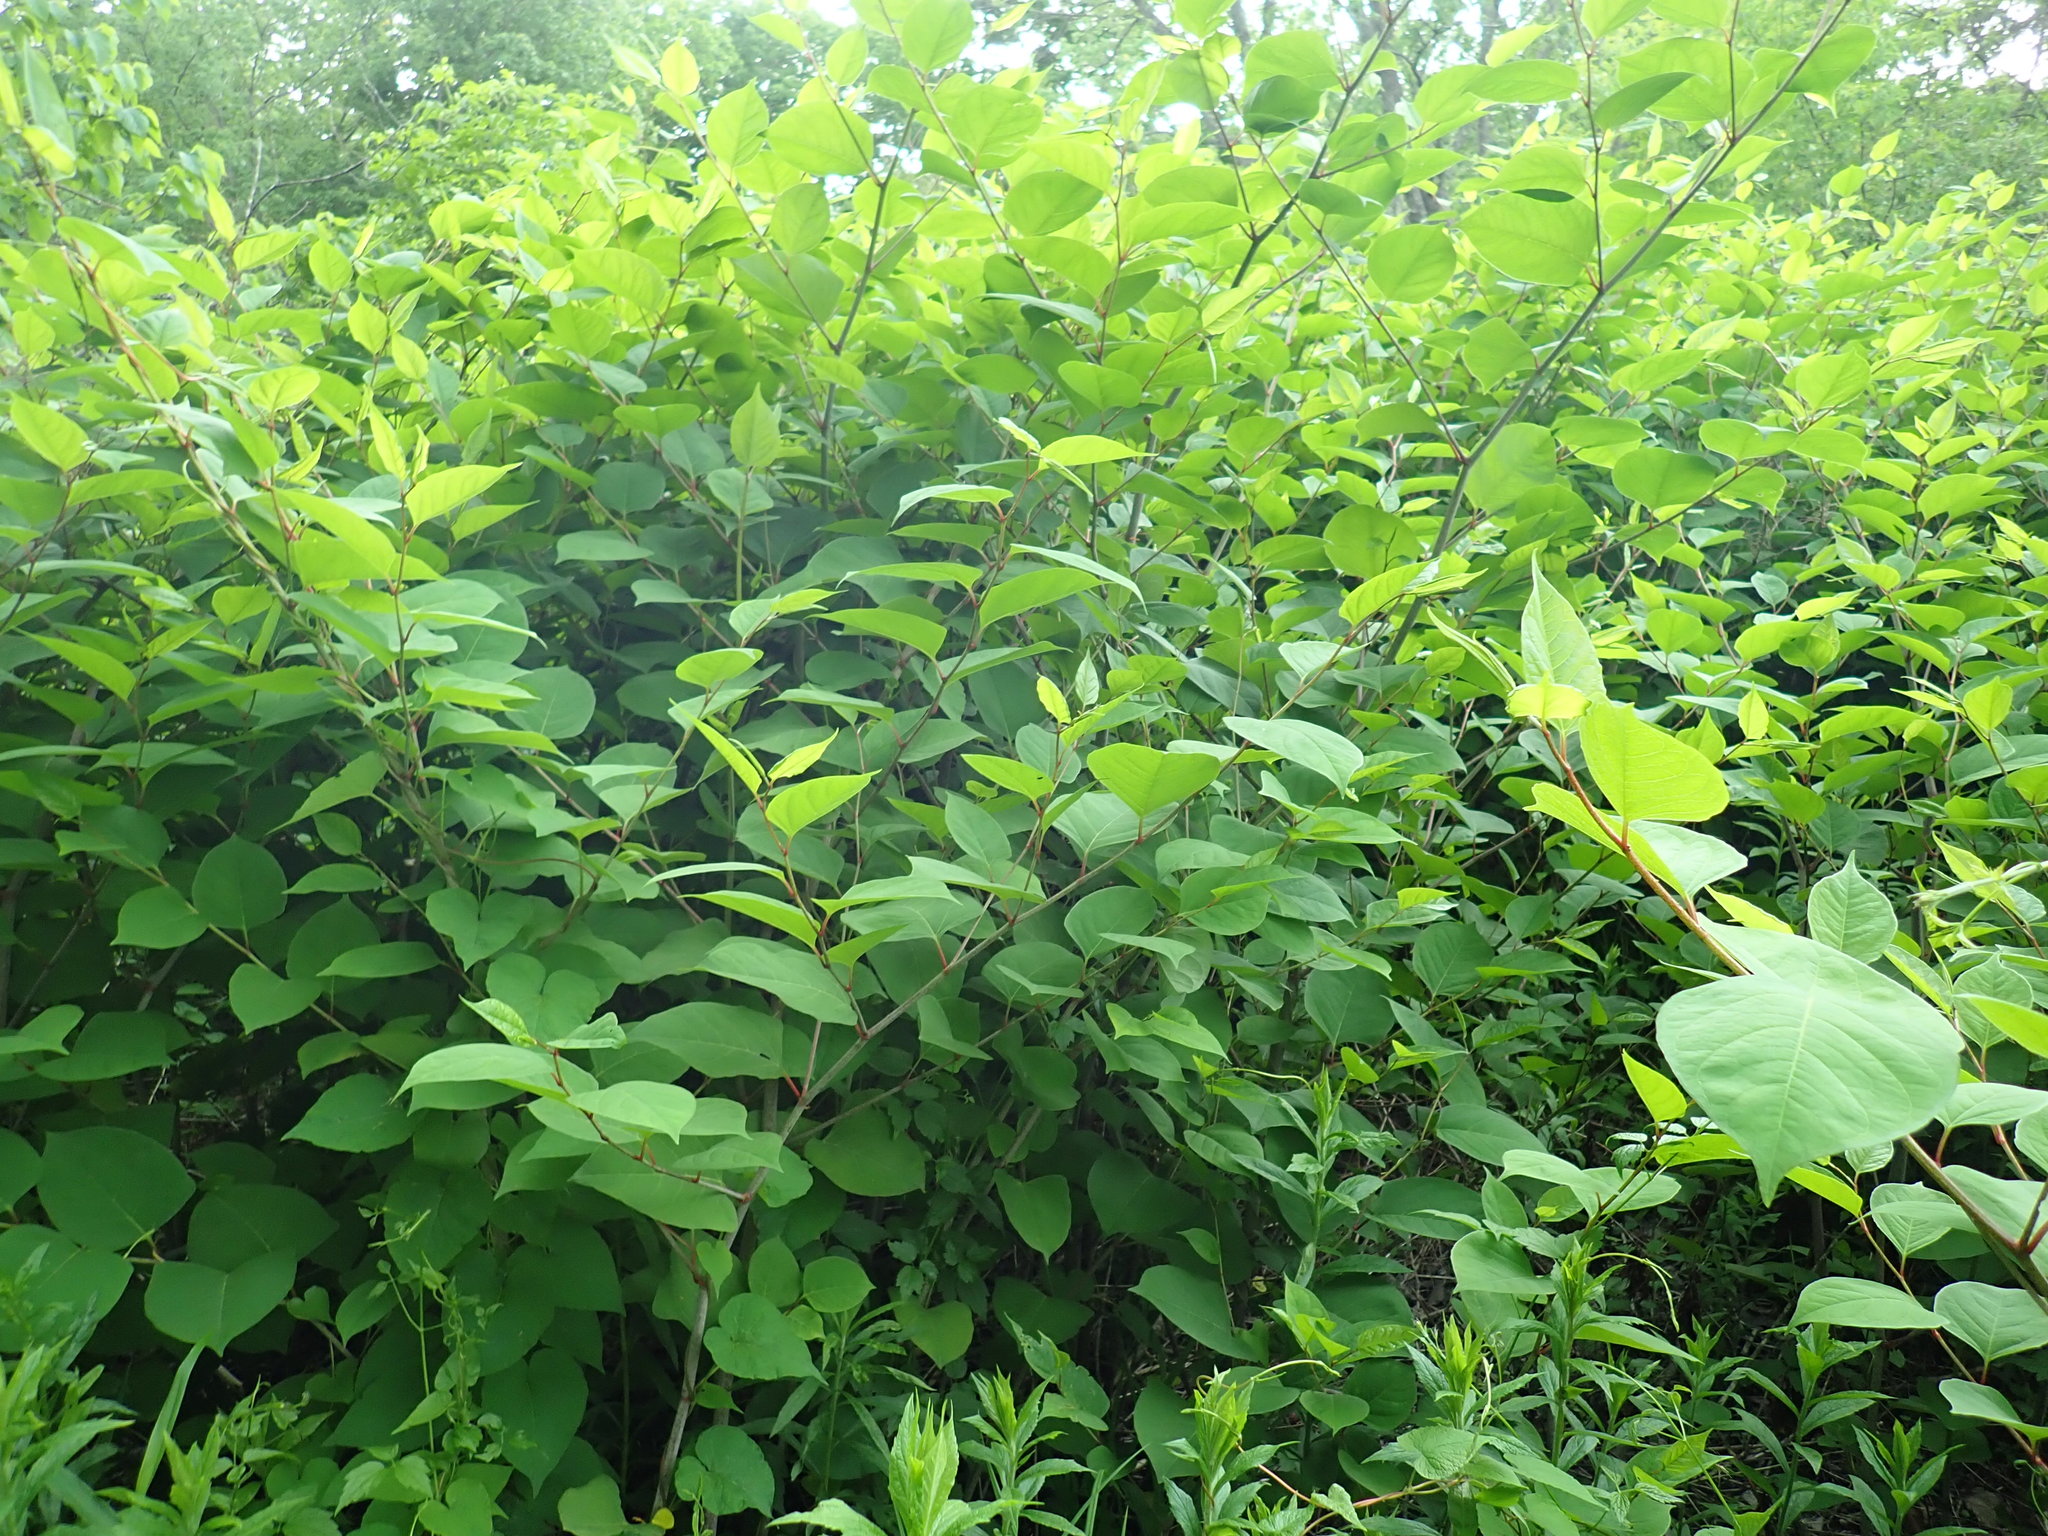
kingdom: Plantae
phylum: Tracheophyta
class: Magnoliopsida
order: Caryophyllales
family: Polygonaceae
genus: Reynoutria
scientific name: Reynoutria japonica
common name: Japanese knotweed
